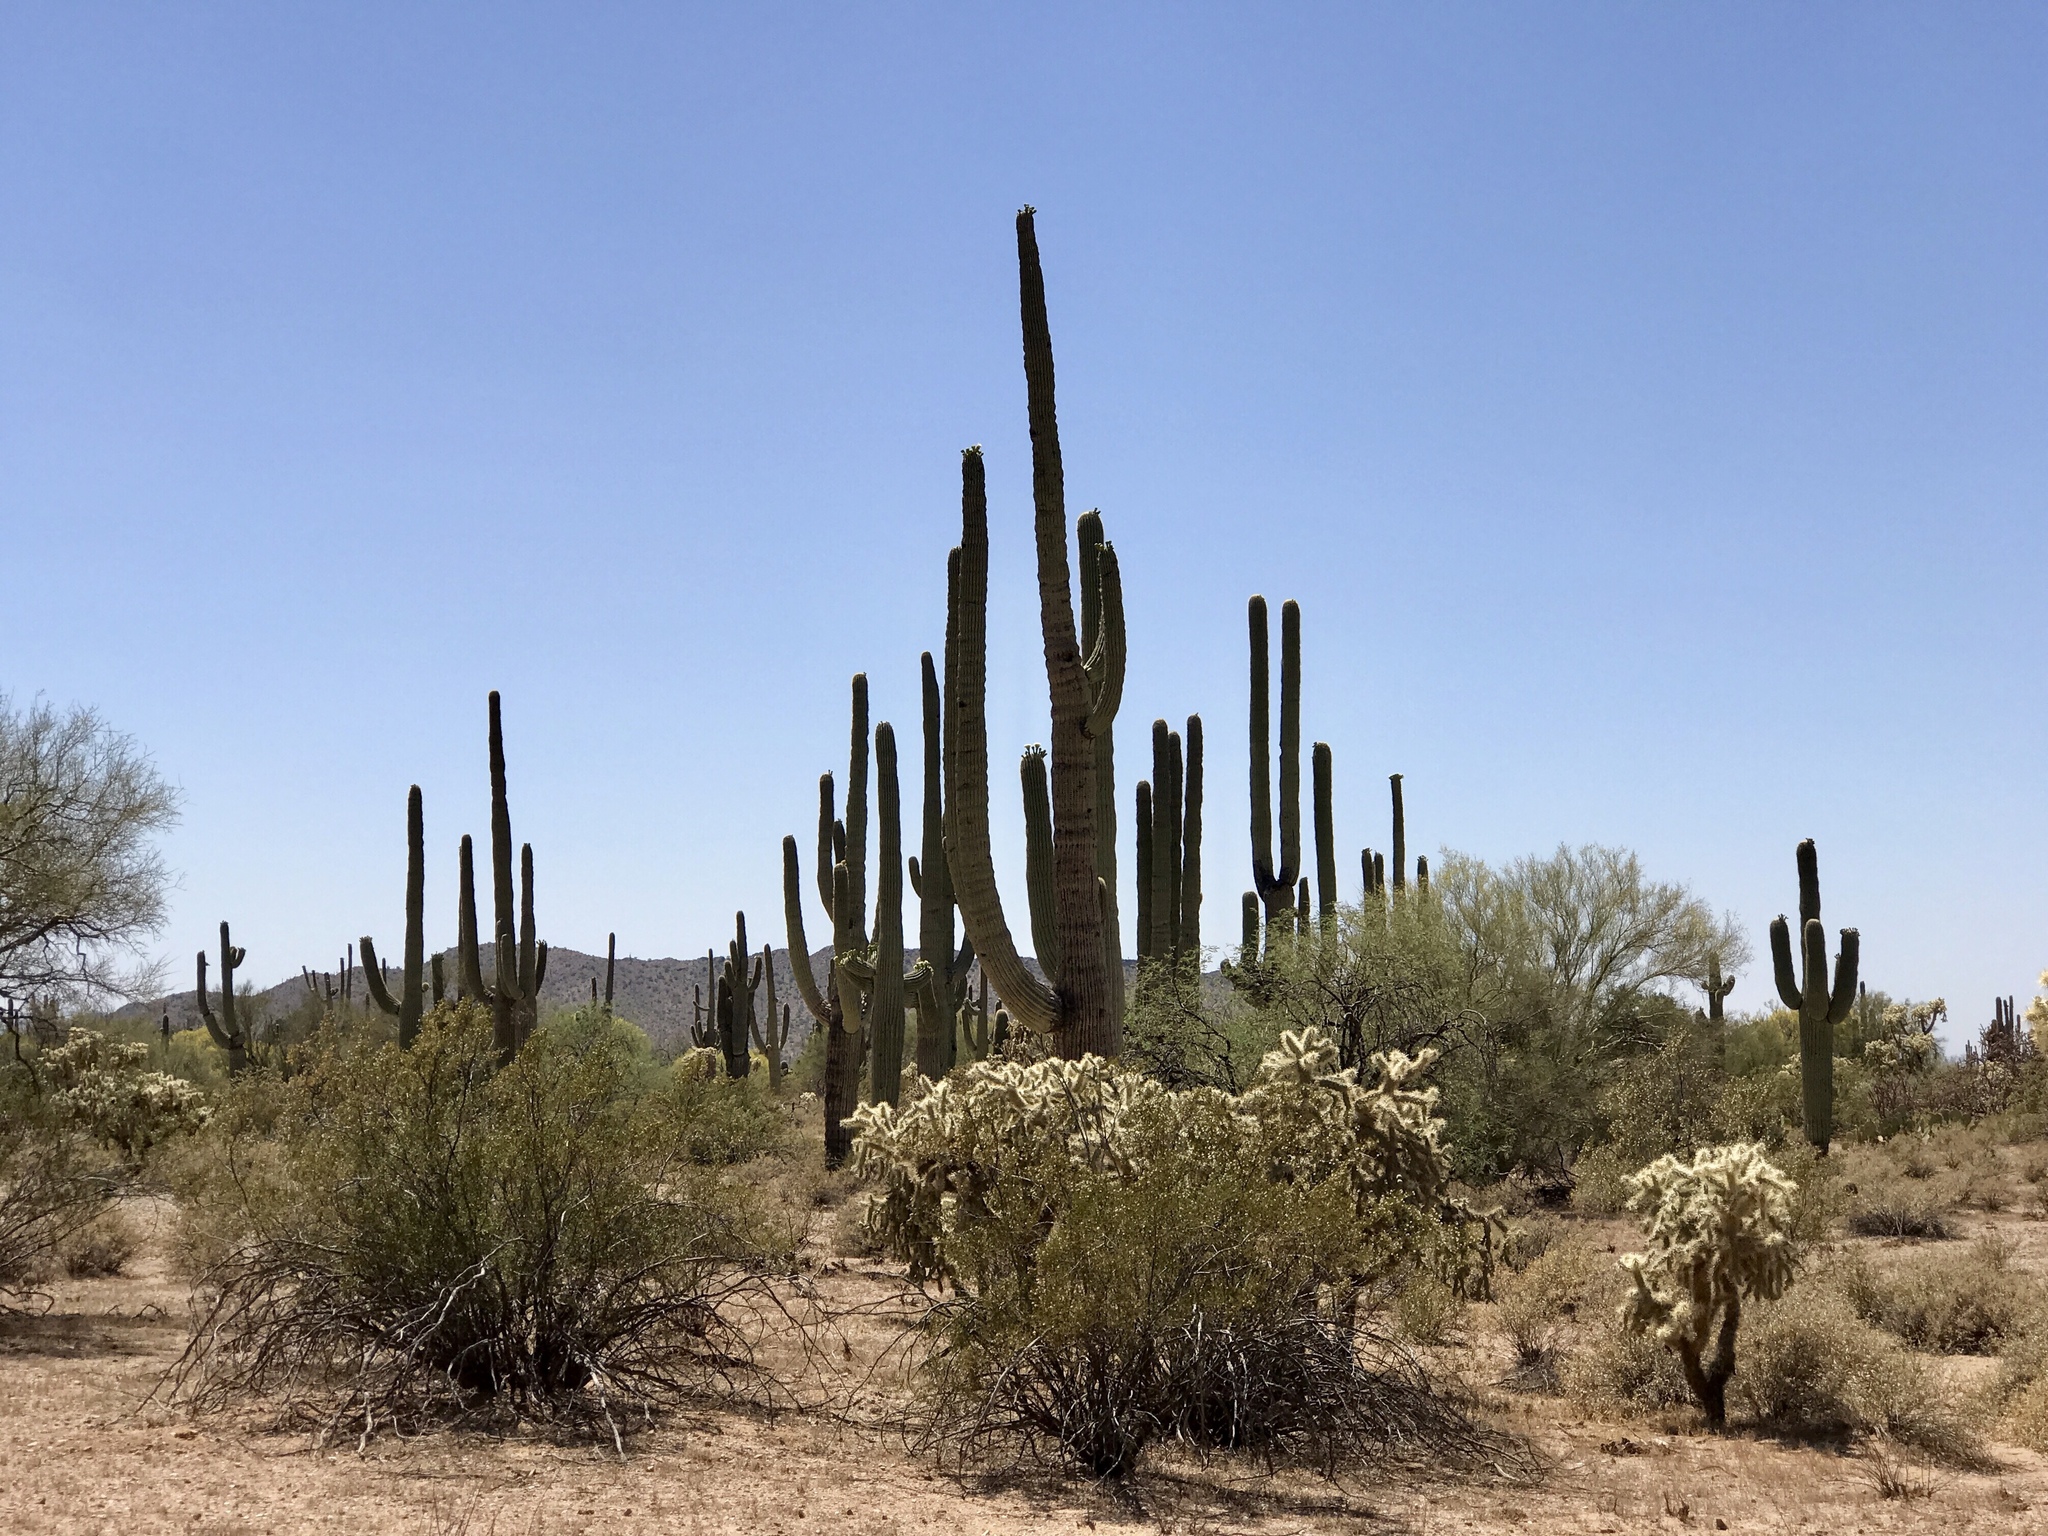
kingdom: Plantae
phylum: Tracheophyta
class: Magnoliopsida
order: Zygophyllales
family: Zygophyllaceae
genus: Larrea
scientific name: Larrea tridentata
